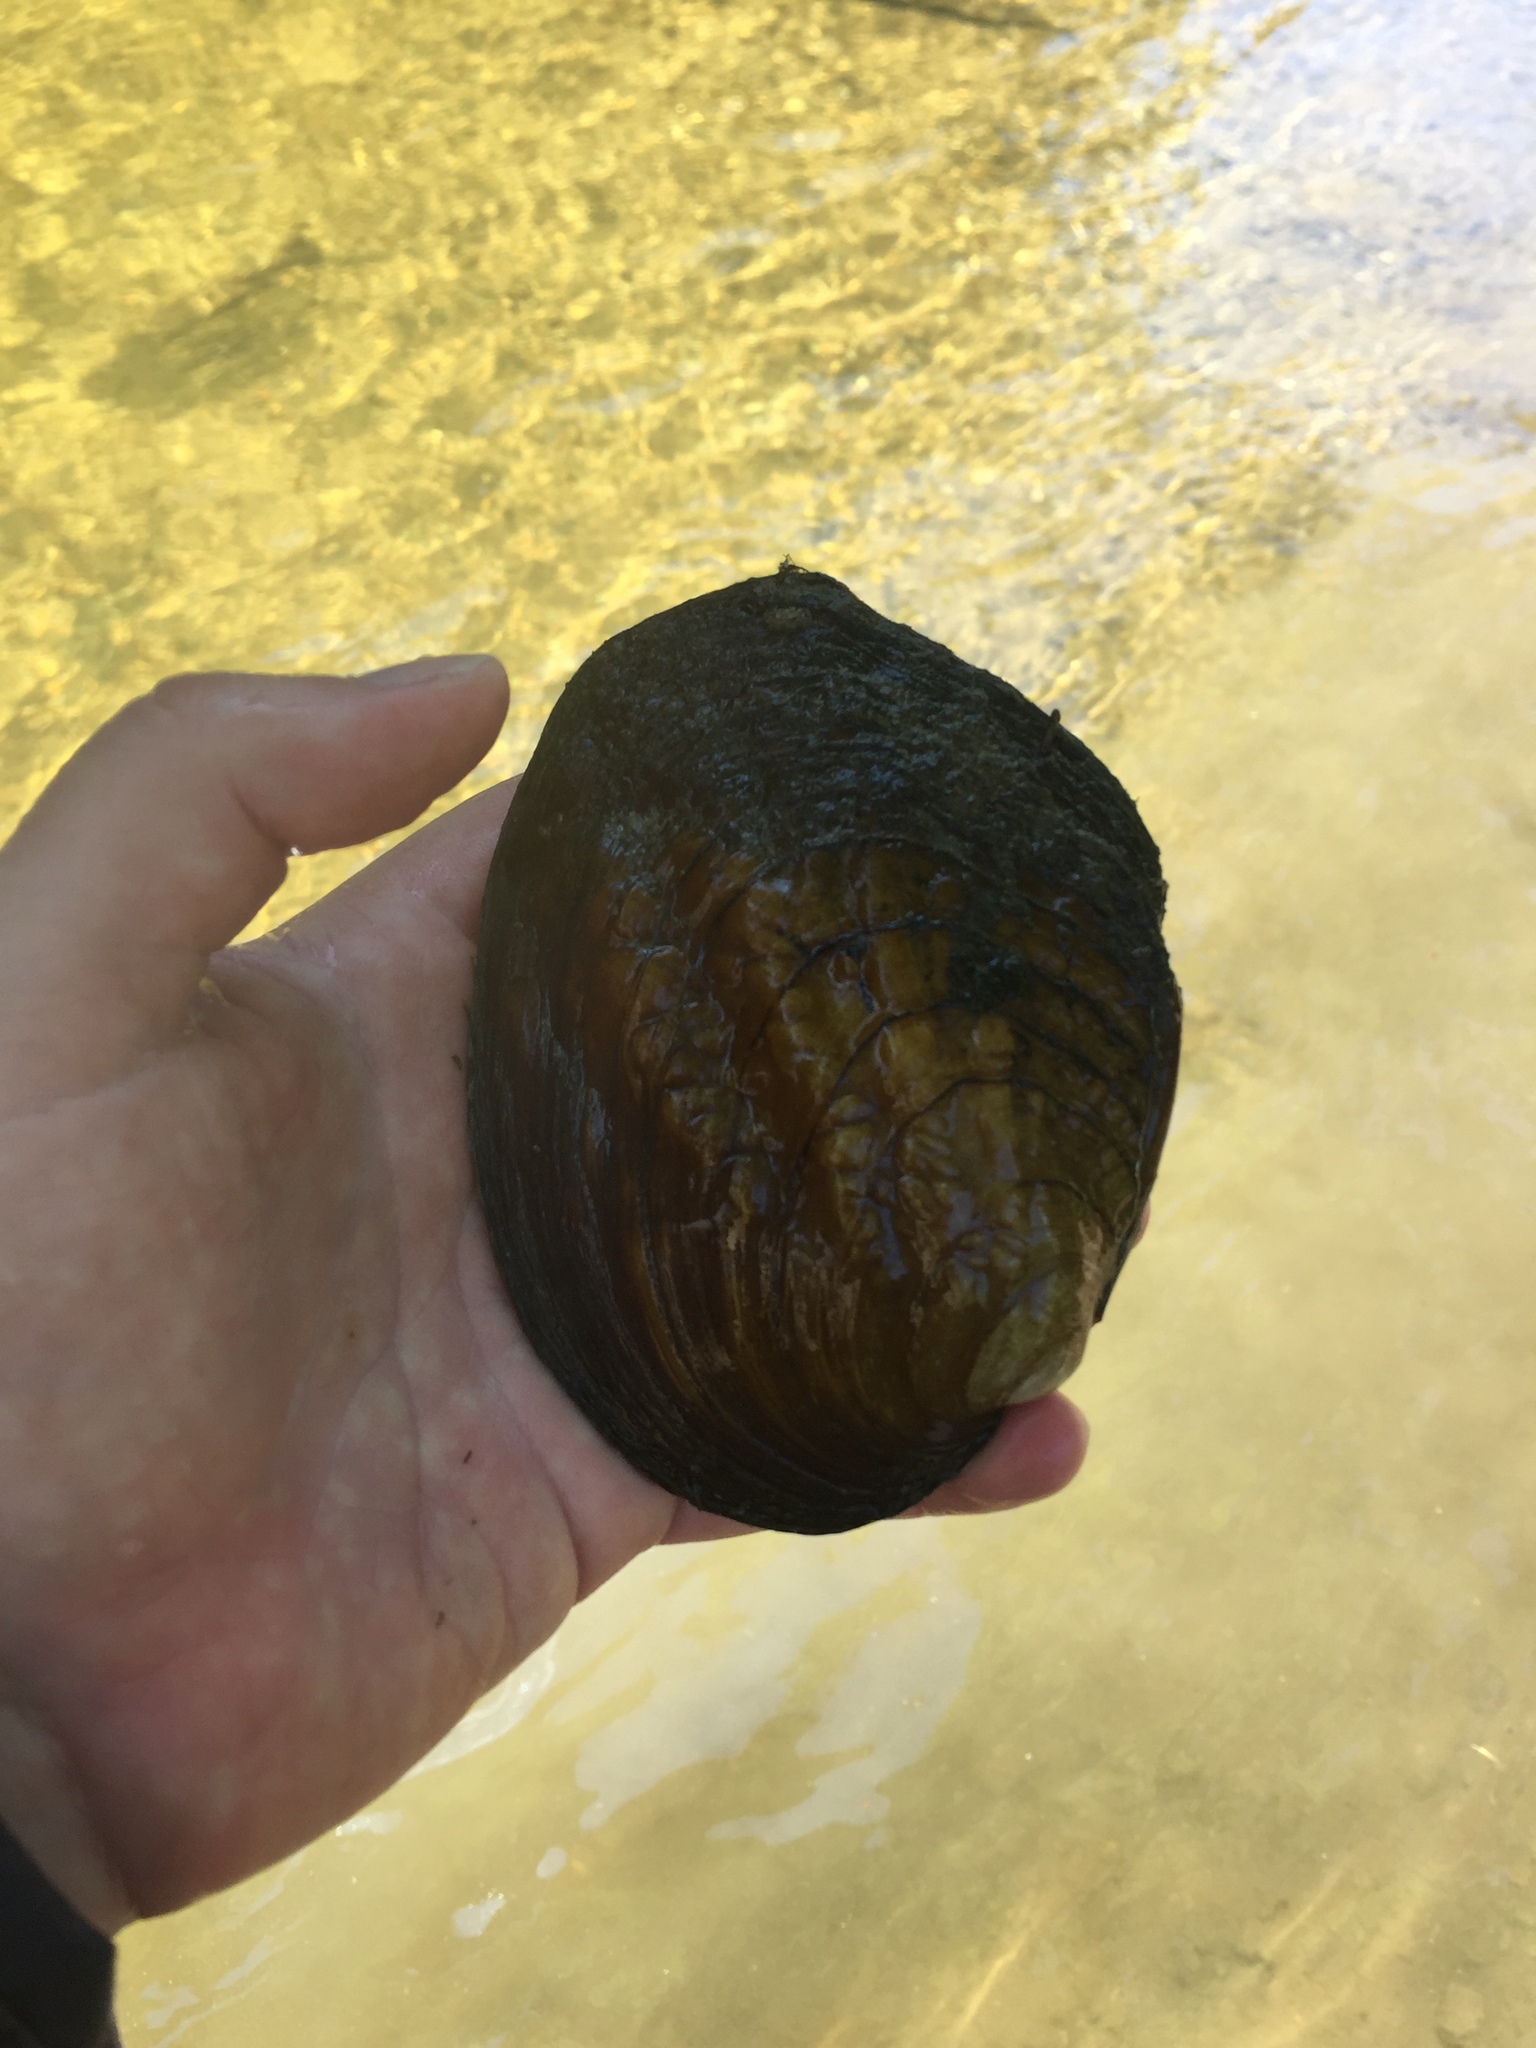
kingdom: Animalia
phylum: Mollusca
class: Bivalvia
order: Unionida
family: Unionidae
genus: Amblema
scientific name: Amblema plicata
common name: Threeridge
